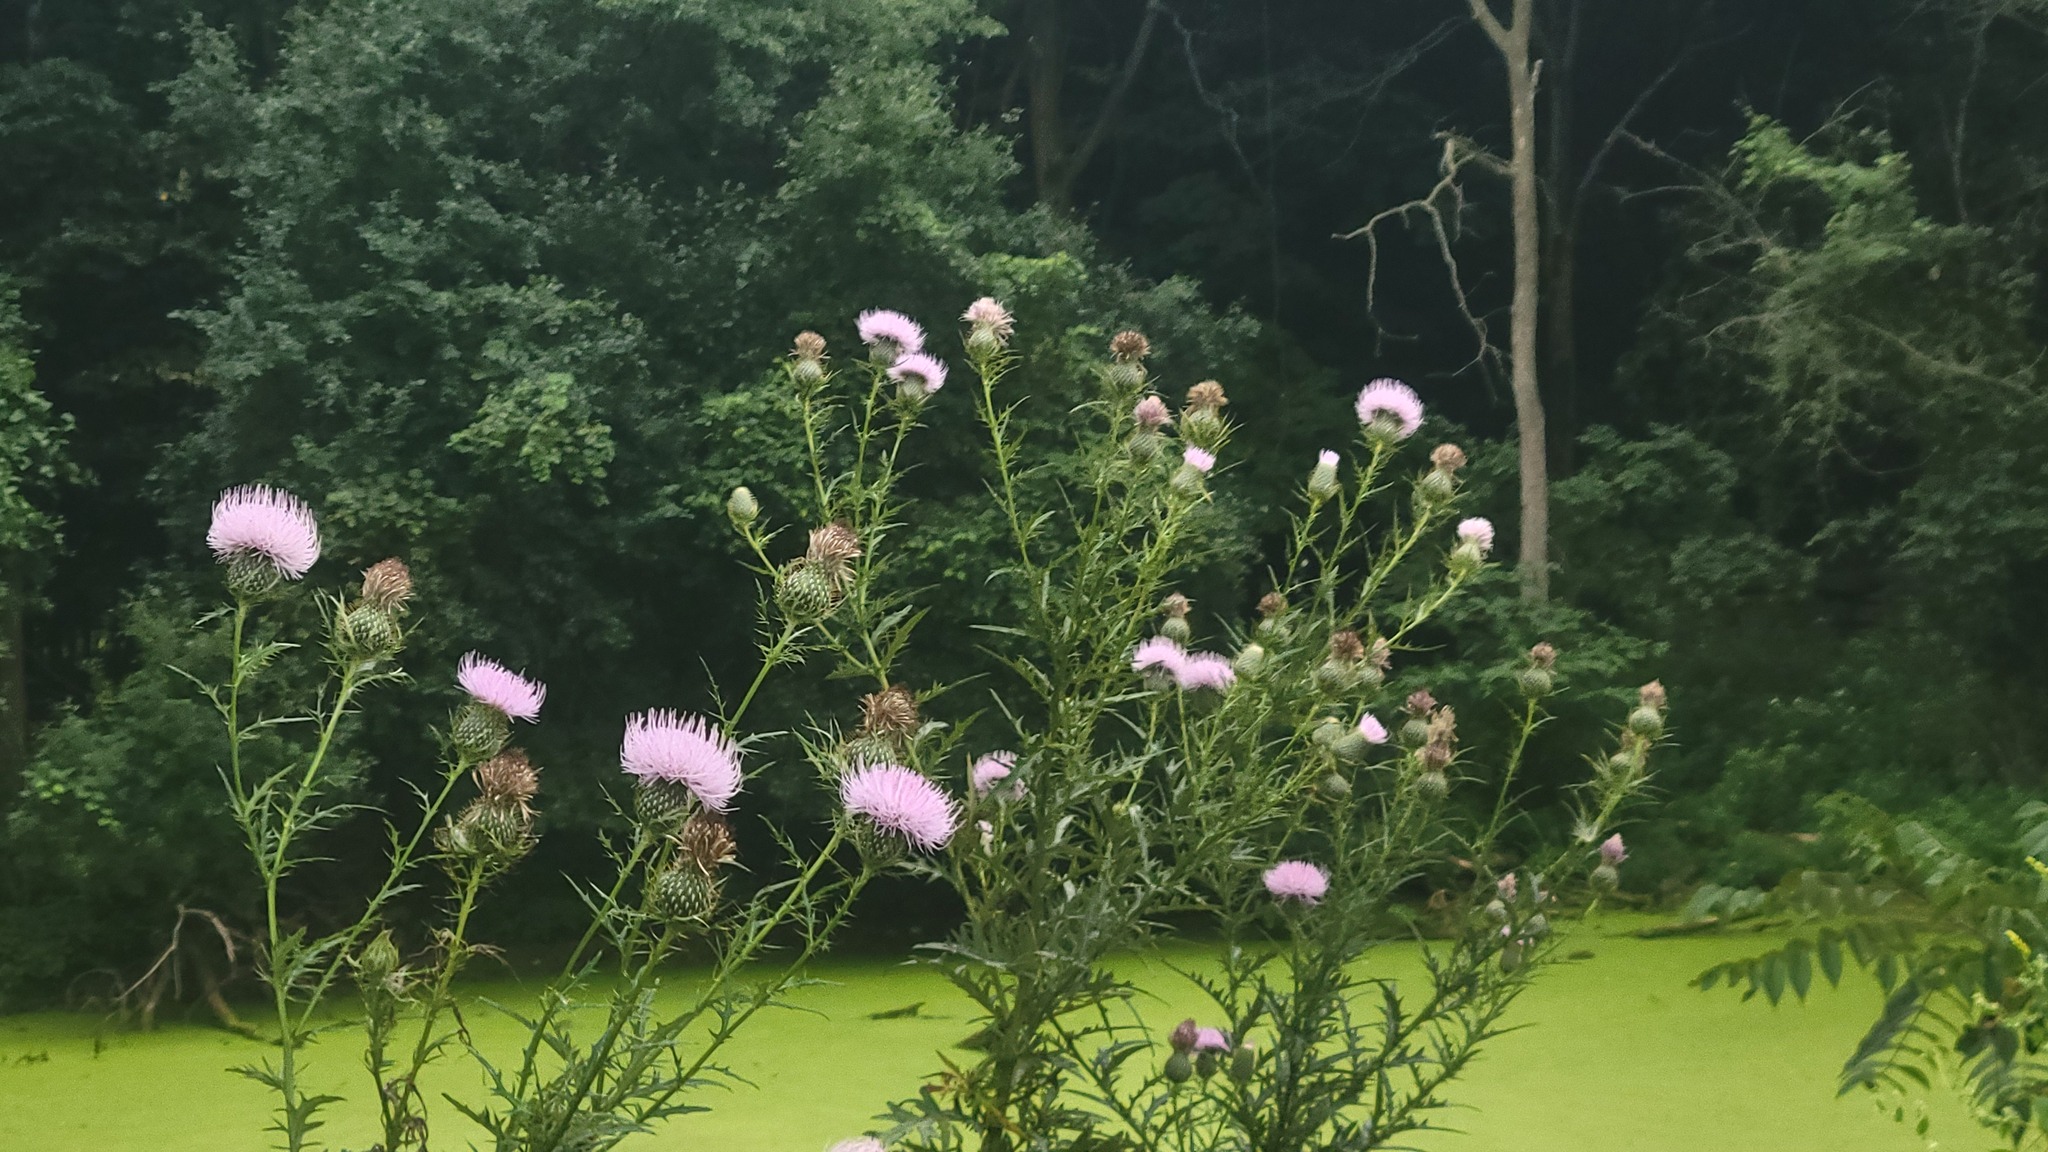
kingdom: Plantae
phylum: Tracheophyta
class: Magnoliopsida
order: Asterales
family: Asteraceae
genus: Cirsium
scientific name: Cirsium discolor
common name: Field thistle
